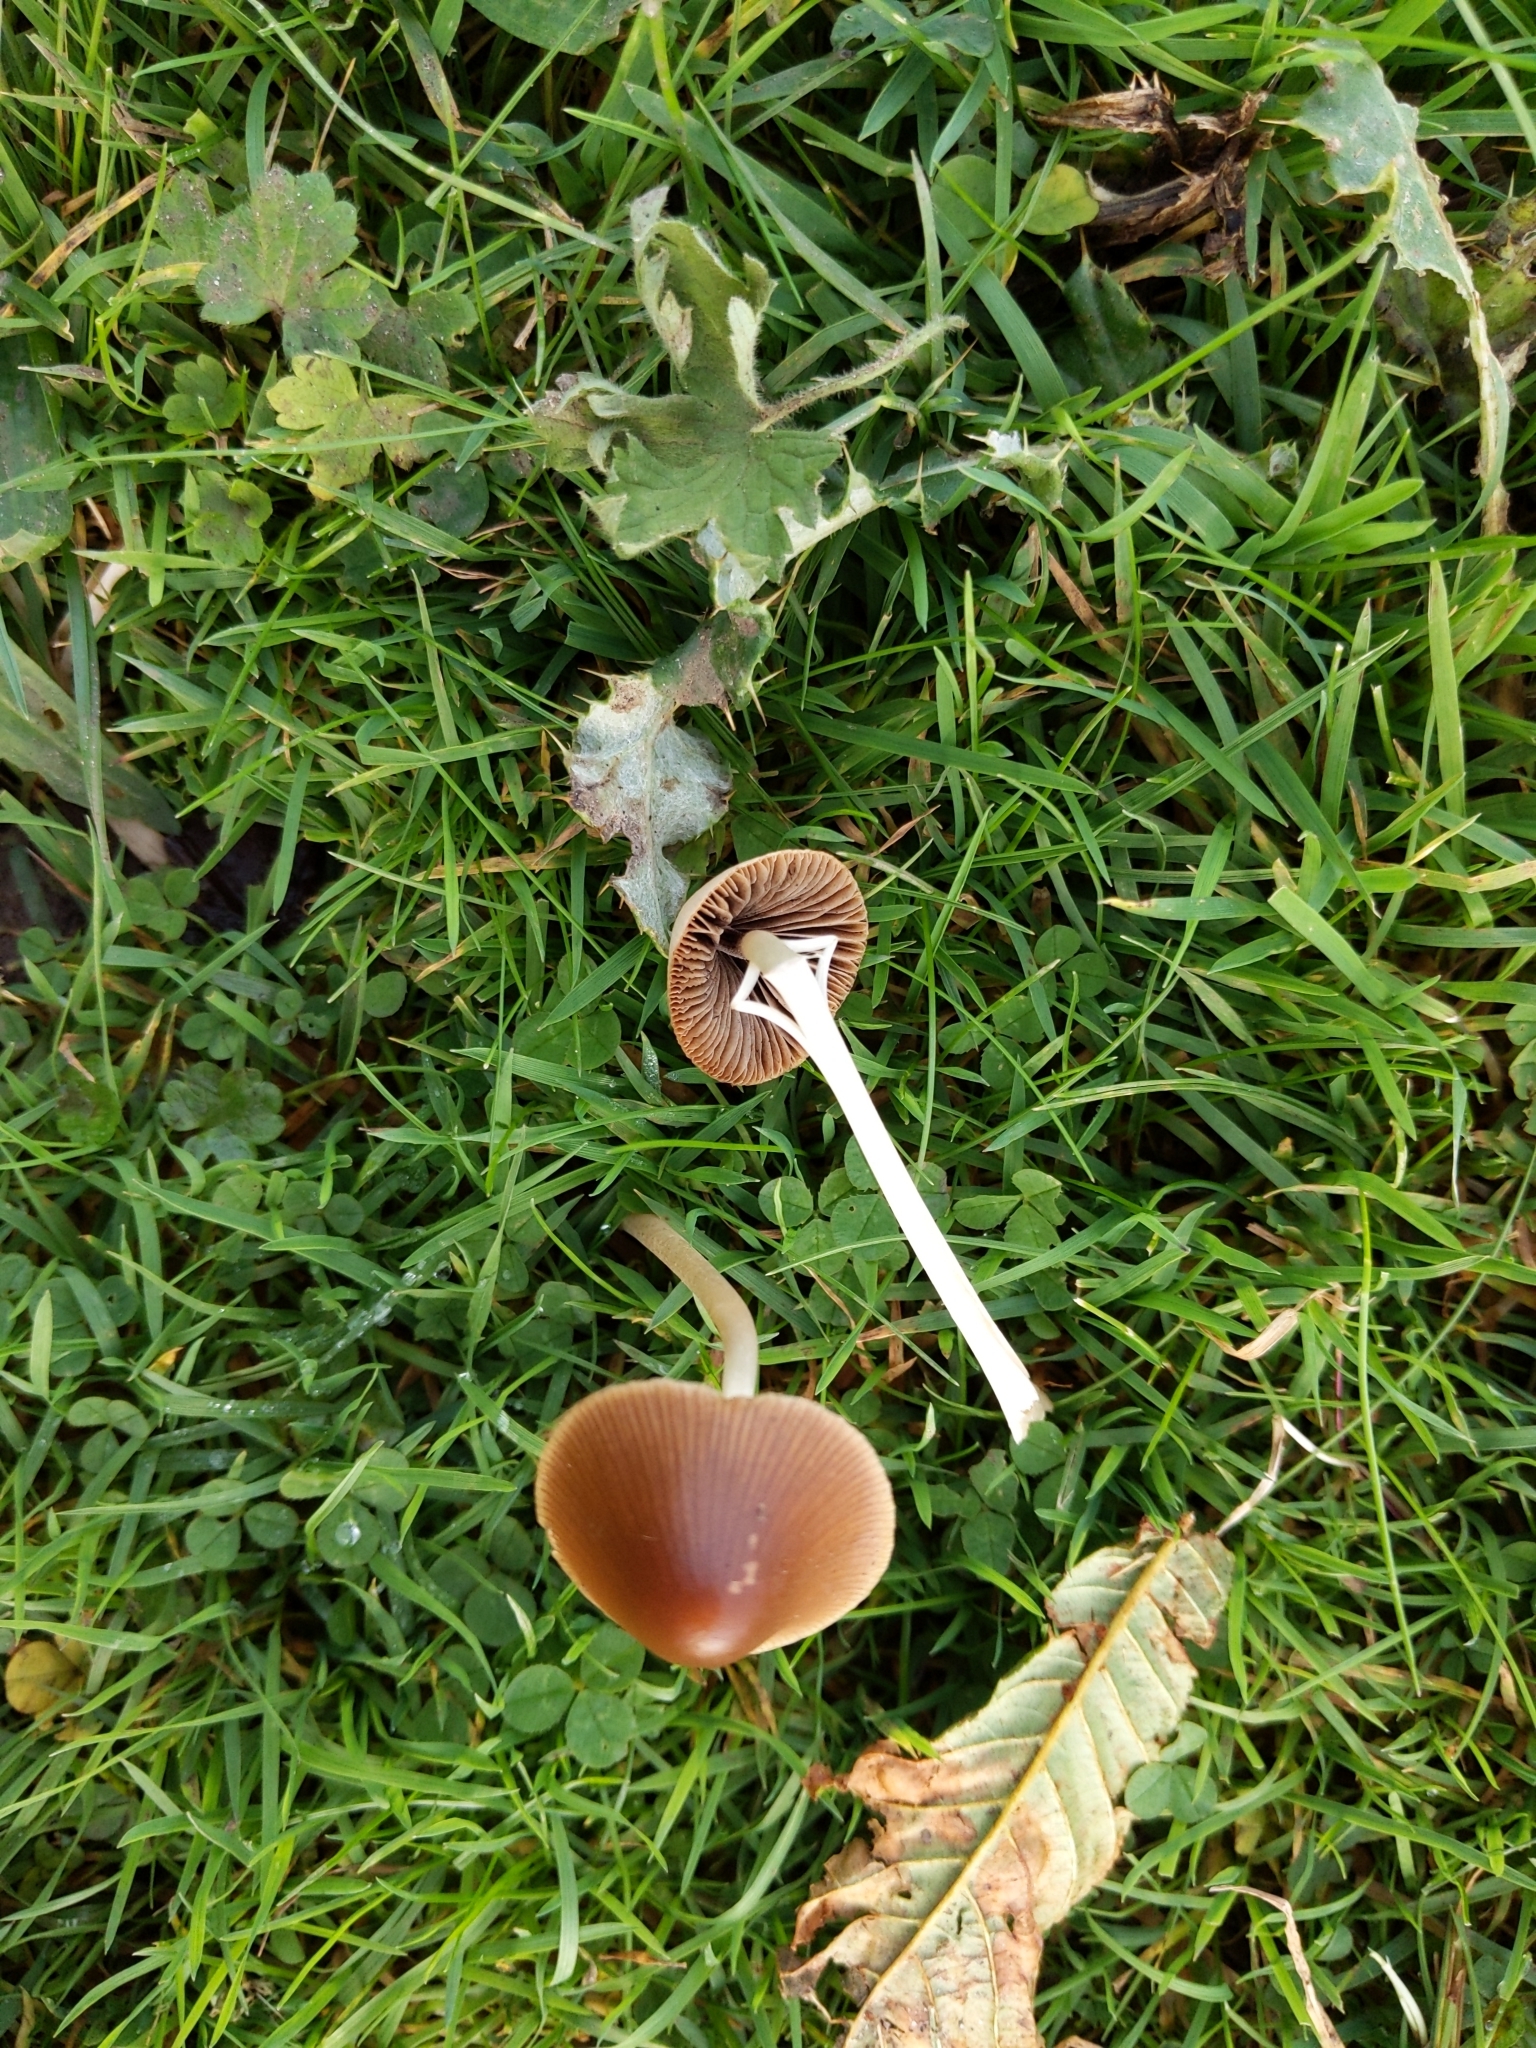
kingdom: Fungi
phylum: Basidiomycota
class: Agaricomycetes
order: Agaricales
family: Psathyrellaceae
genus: Parasola
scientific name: Parasola conopilea
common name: Conical brittlestem
